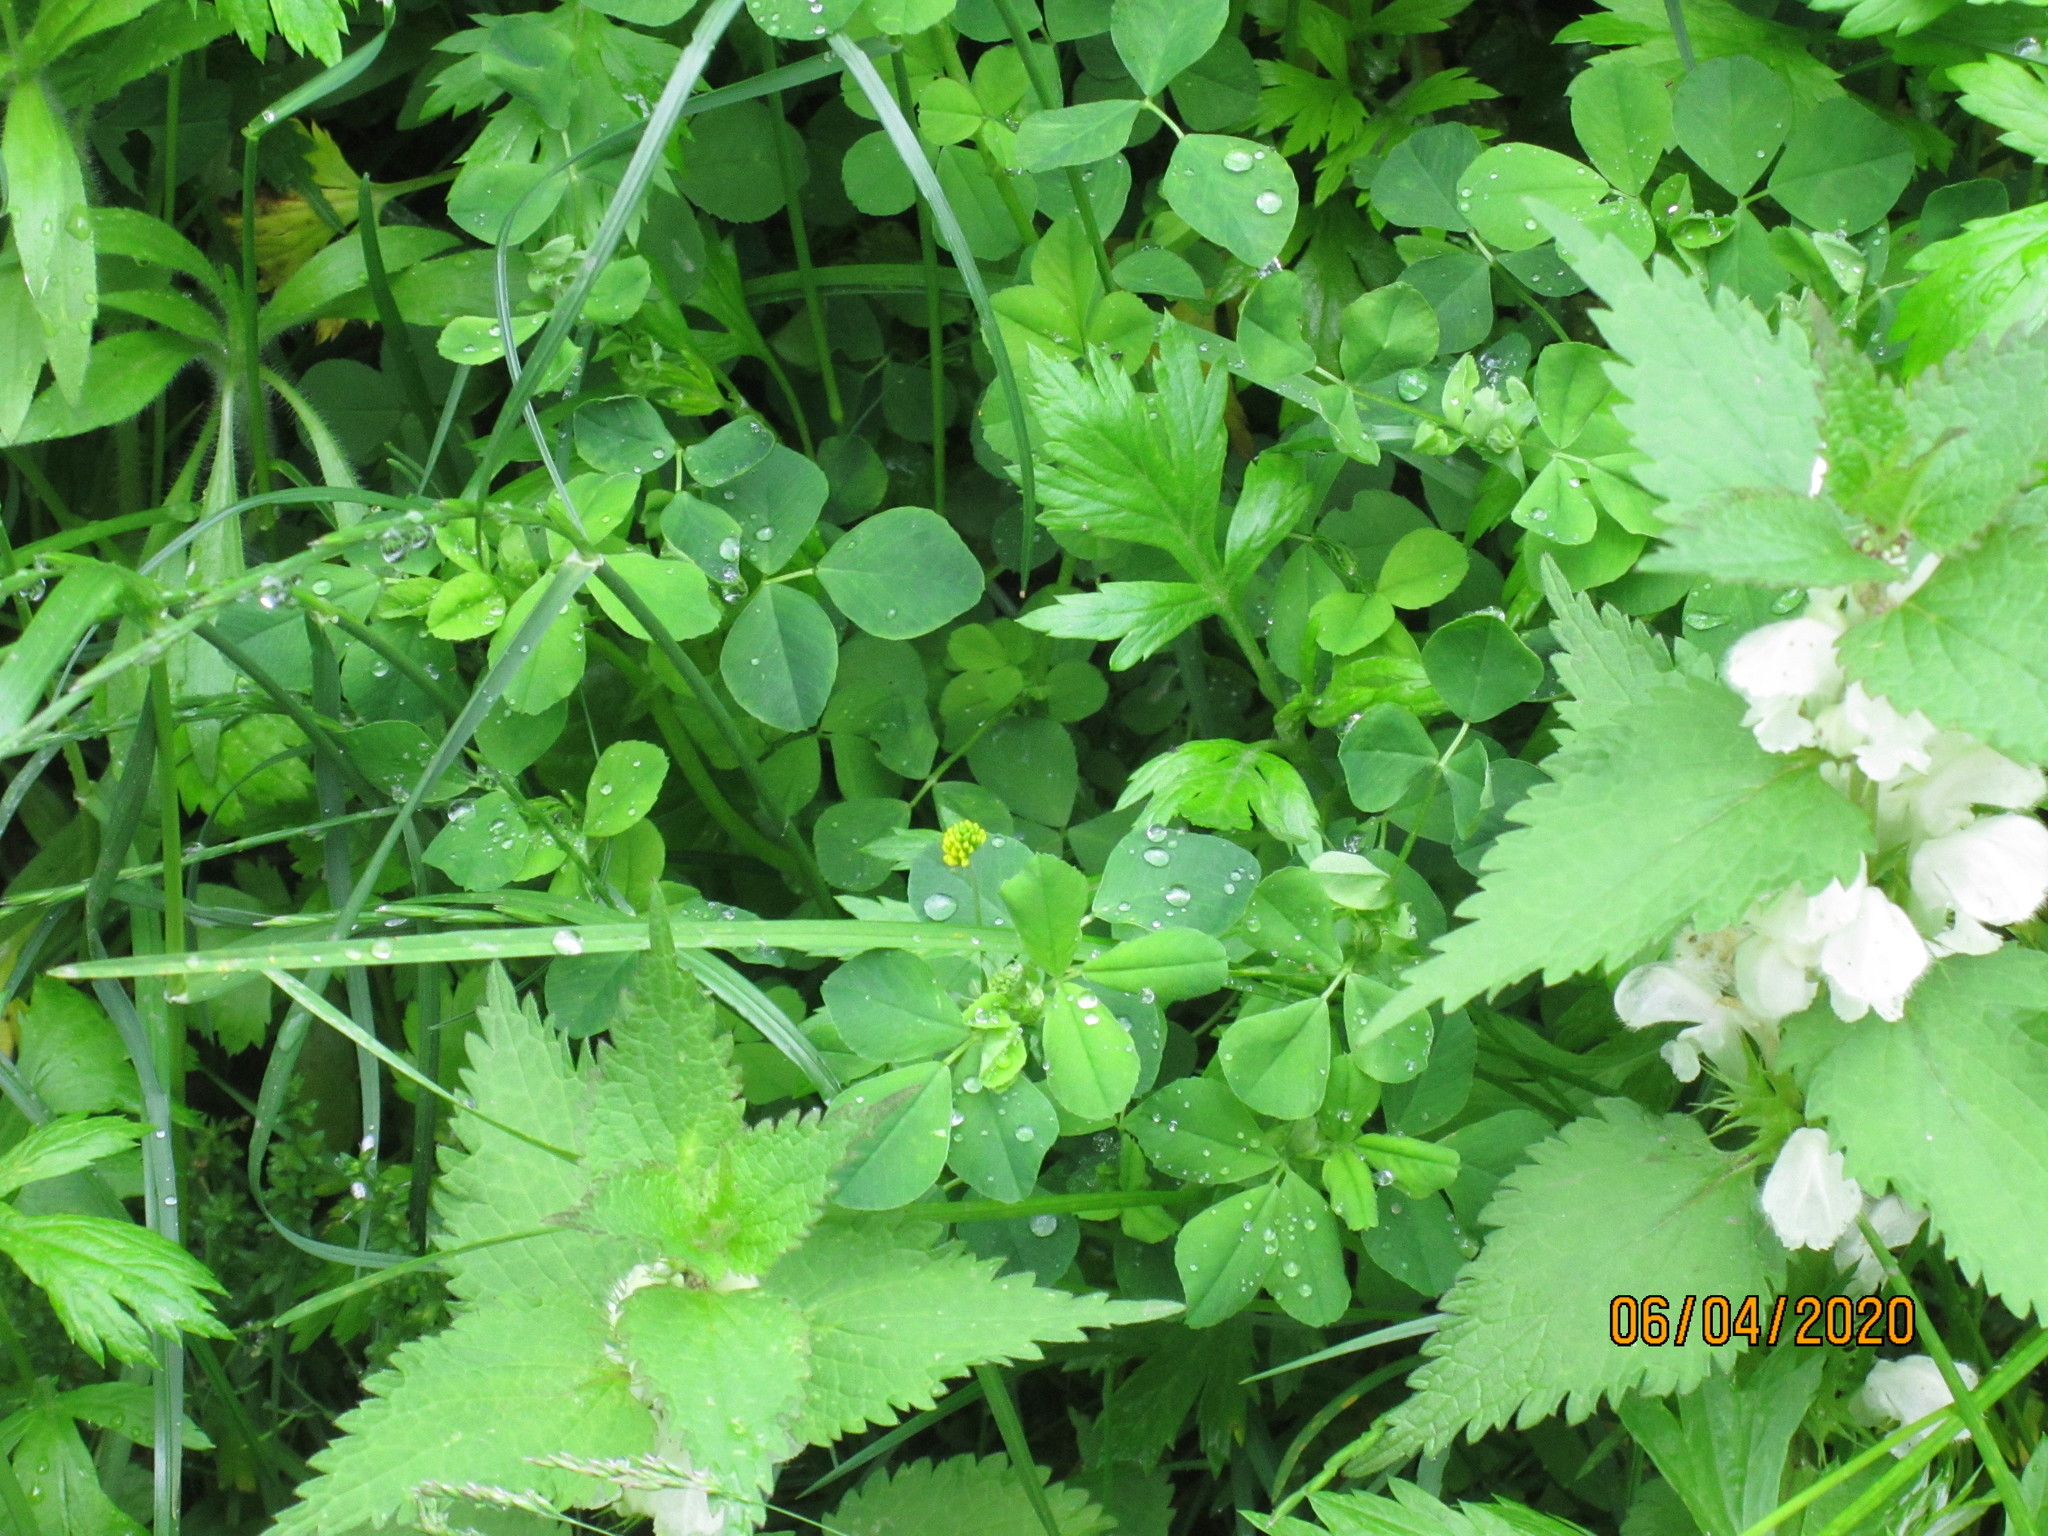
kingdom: Plantae
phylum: Tracheophyta
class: Magnoliopsida
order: Fabales
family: Fabaceae
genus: Medicago
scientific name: Medicago lupulina
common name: Black medick
